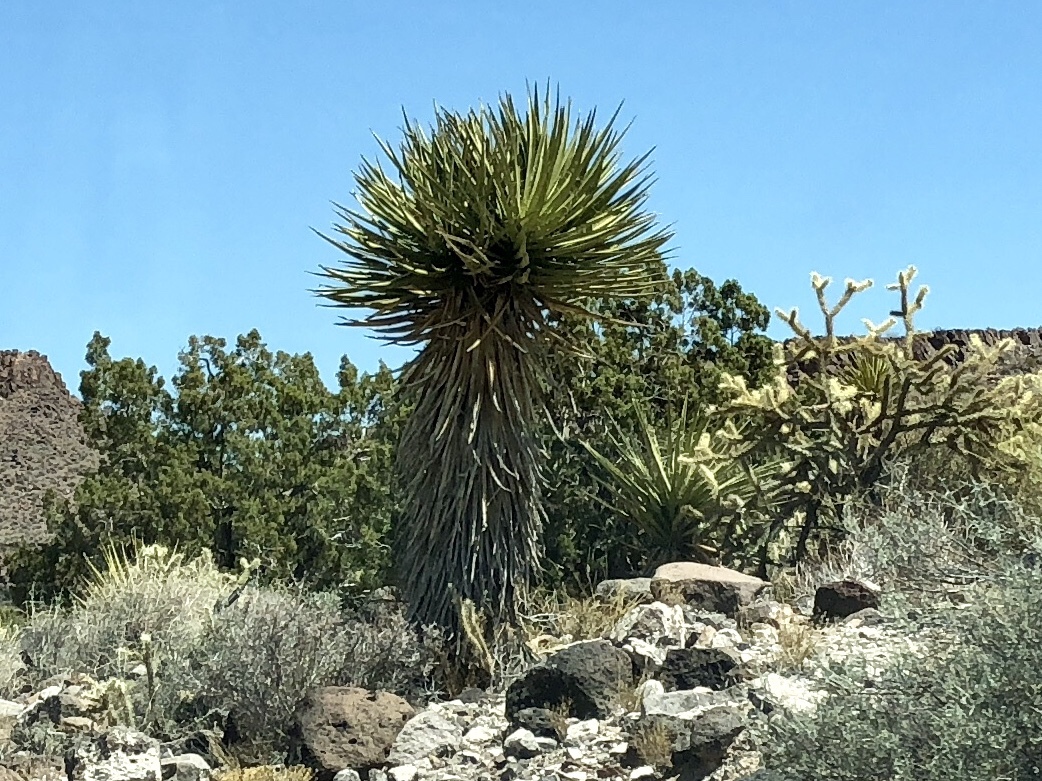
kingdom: Plantae
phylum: Tracheophyta
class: Liliopsida
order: Asparagales
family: Asparagaceae
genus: Yucca
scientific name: Yucca schidigera
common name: Mojave yucca
